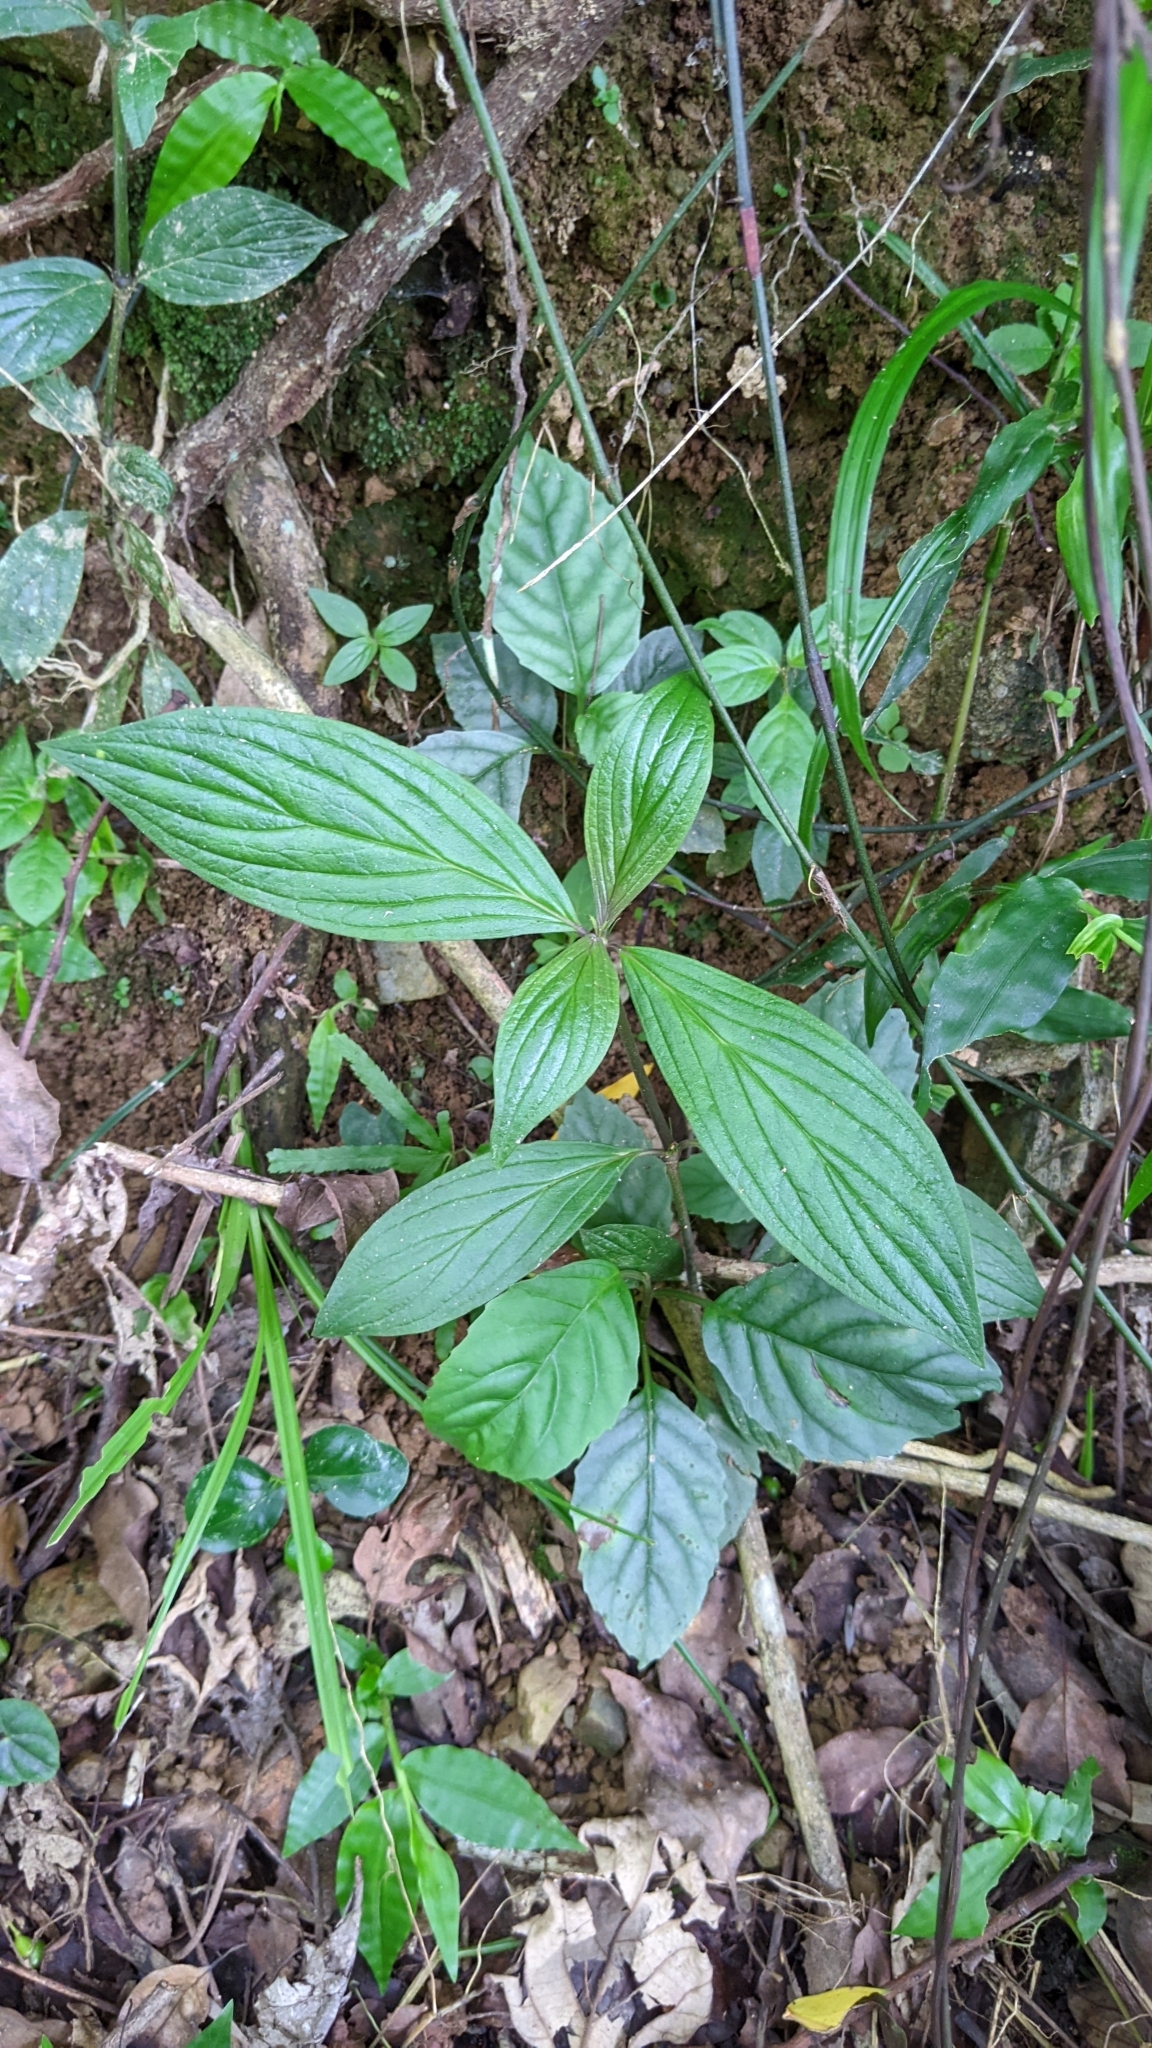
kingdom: Plantae
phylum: Tracheophyta
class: Magnoliopsida
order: Gentianales
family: Rubiaceae
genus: Dimetia
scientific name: Dimetia hedyotidea
